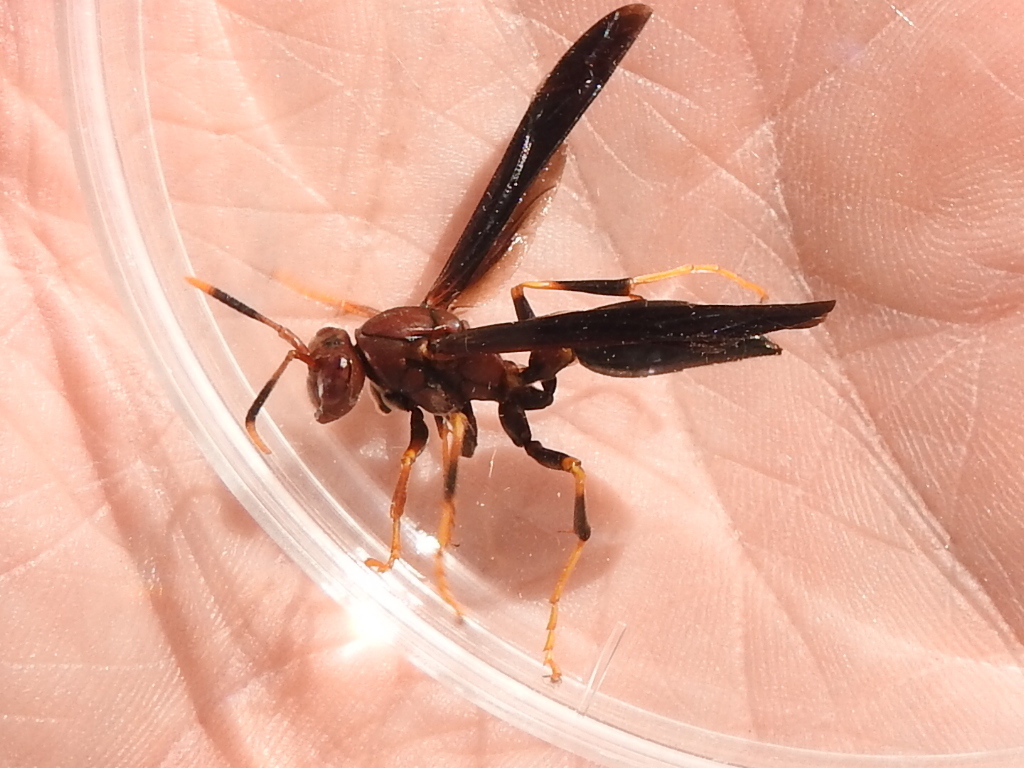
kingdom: Animalia
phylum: Arthropoda
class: Insecta
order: Hymenoptera
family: Eumenidae
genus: Polistes
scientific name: Polistes annularis
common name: Ringed paper wasp
